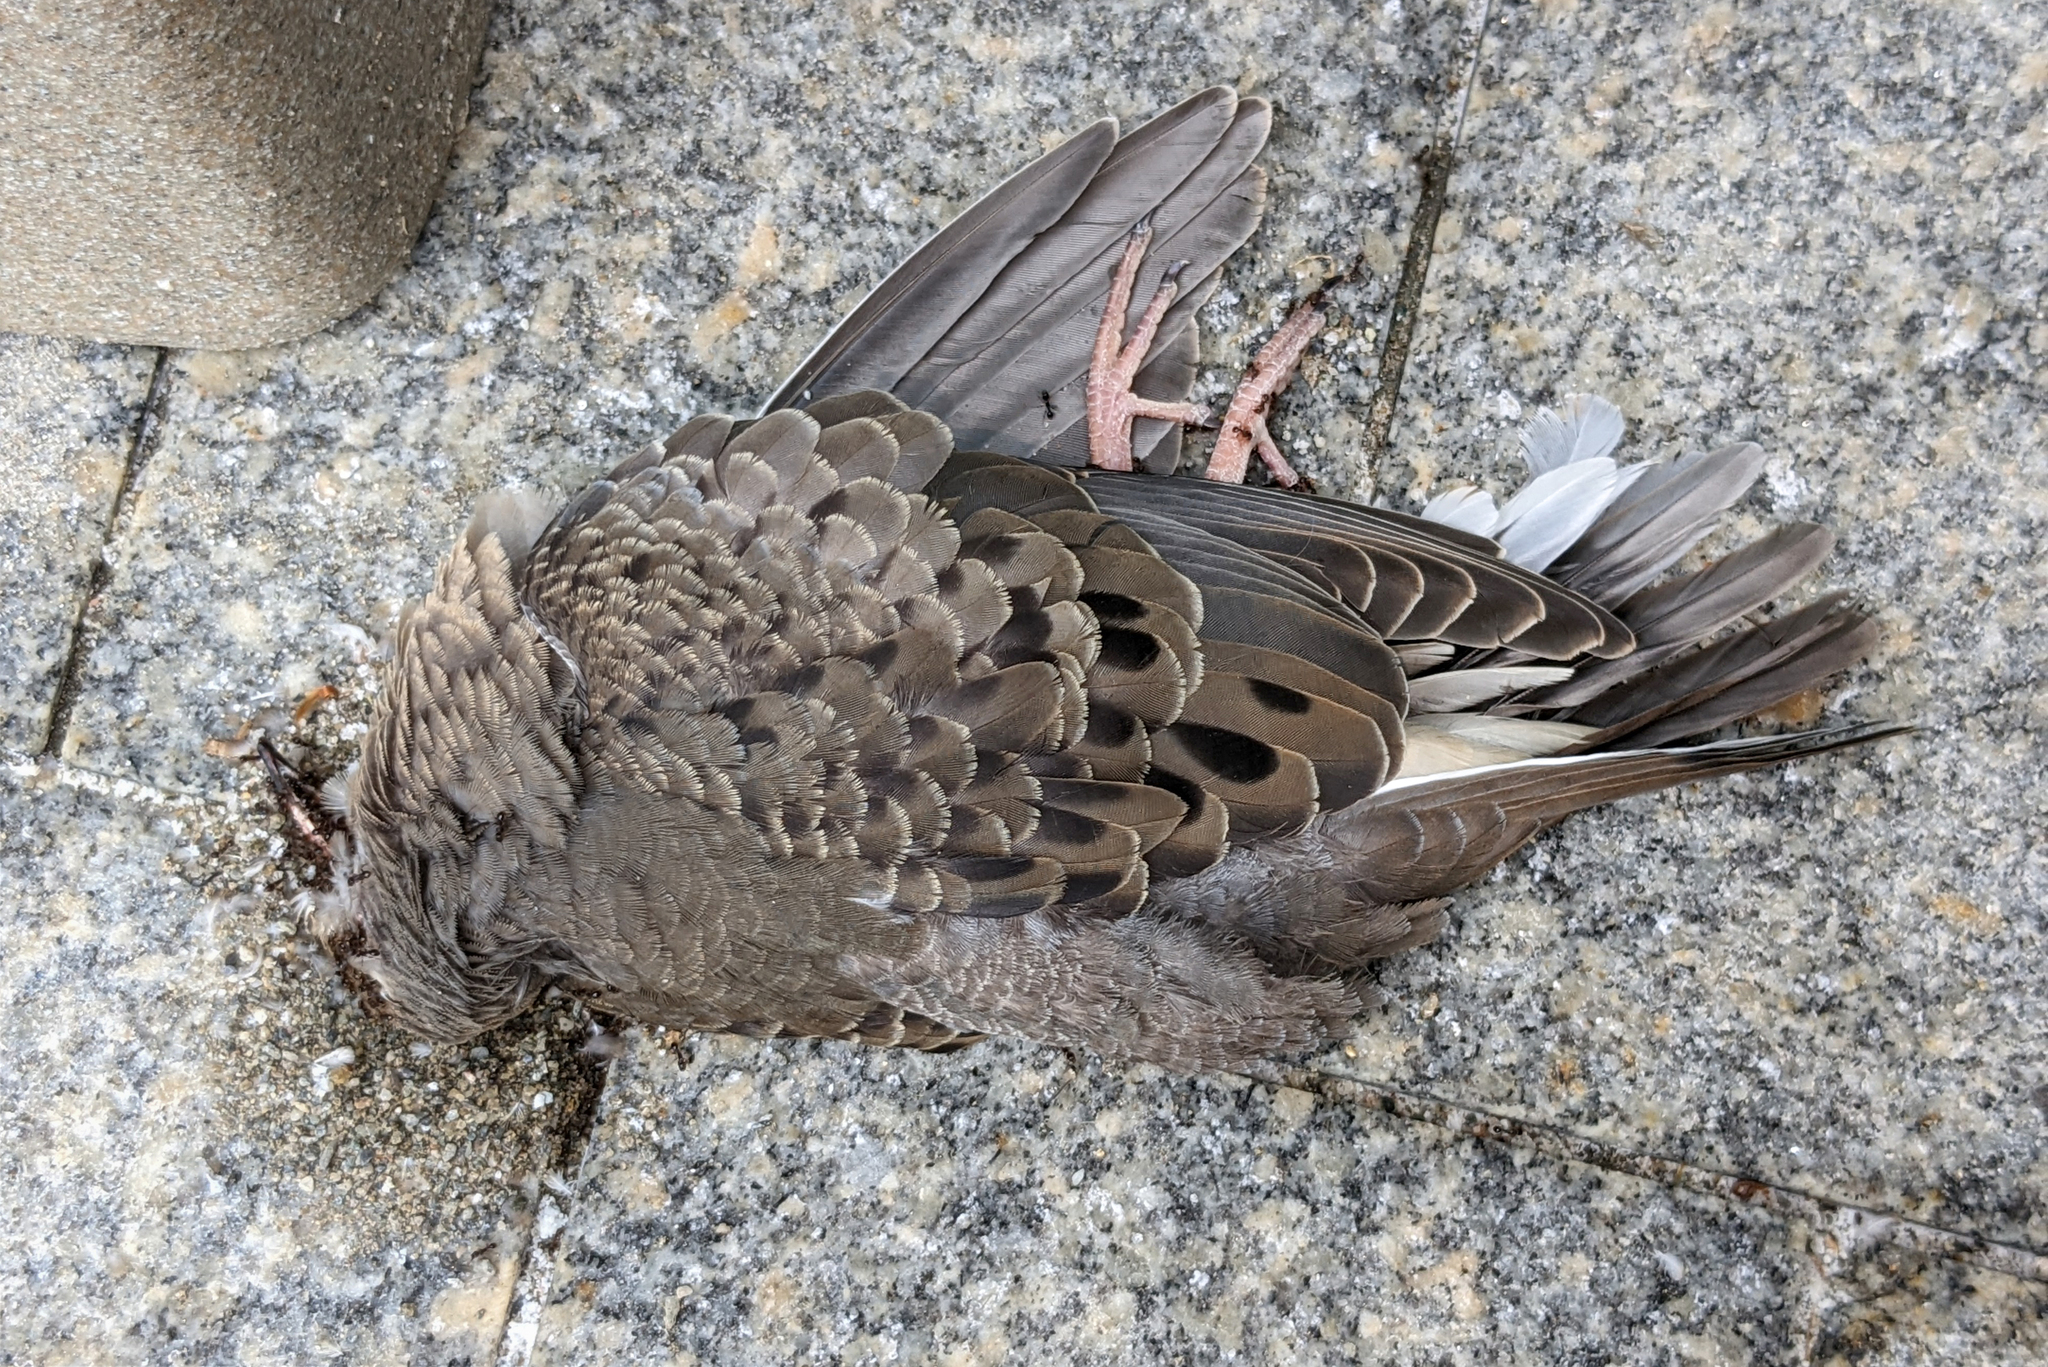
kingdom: Animalia
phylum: Chordata
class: Aves
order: Columbiformes
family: Columbidae
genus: Zenaida
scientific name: Zenaida macroura
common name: Mourning dove
